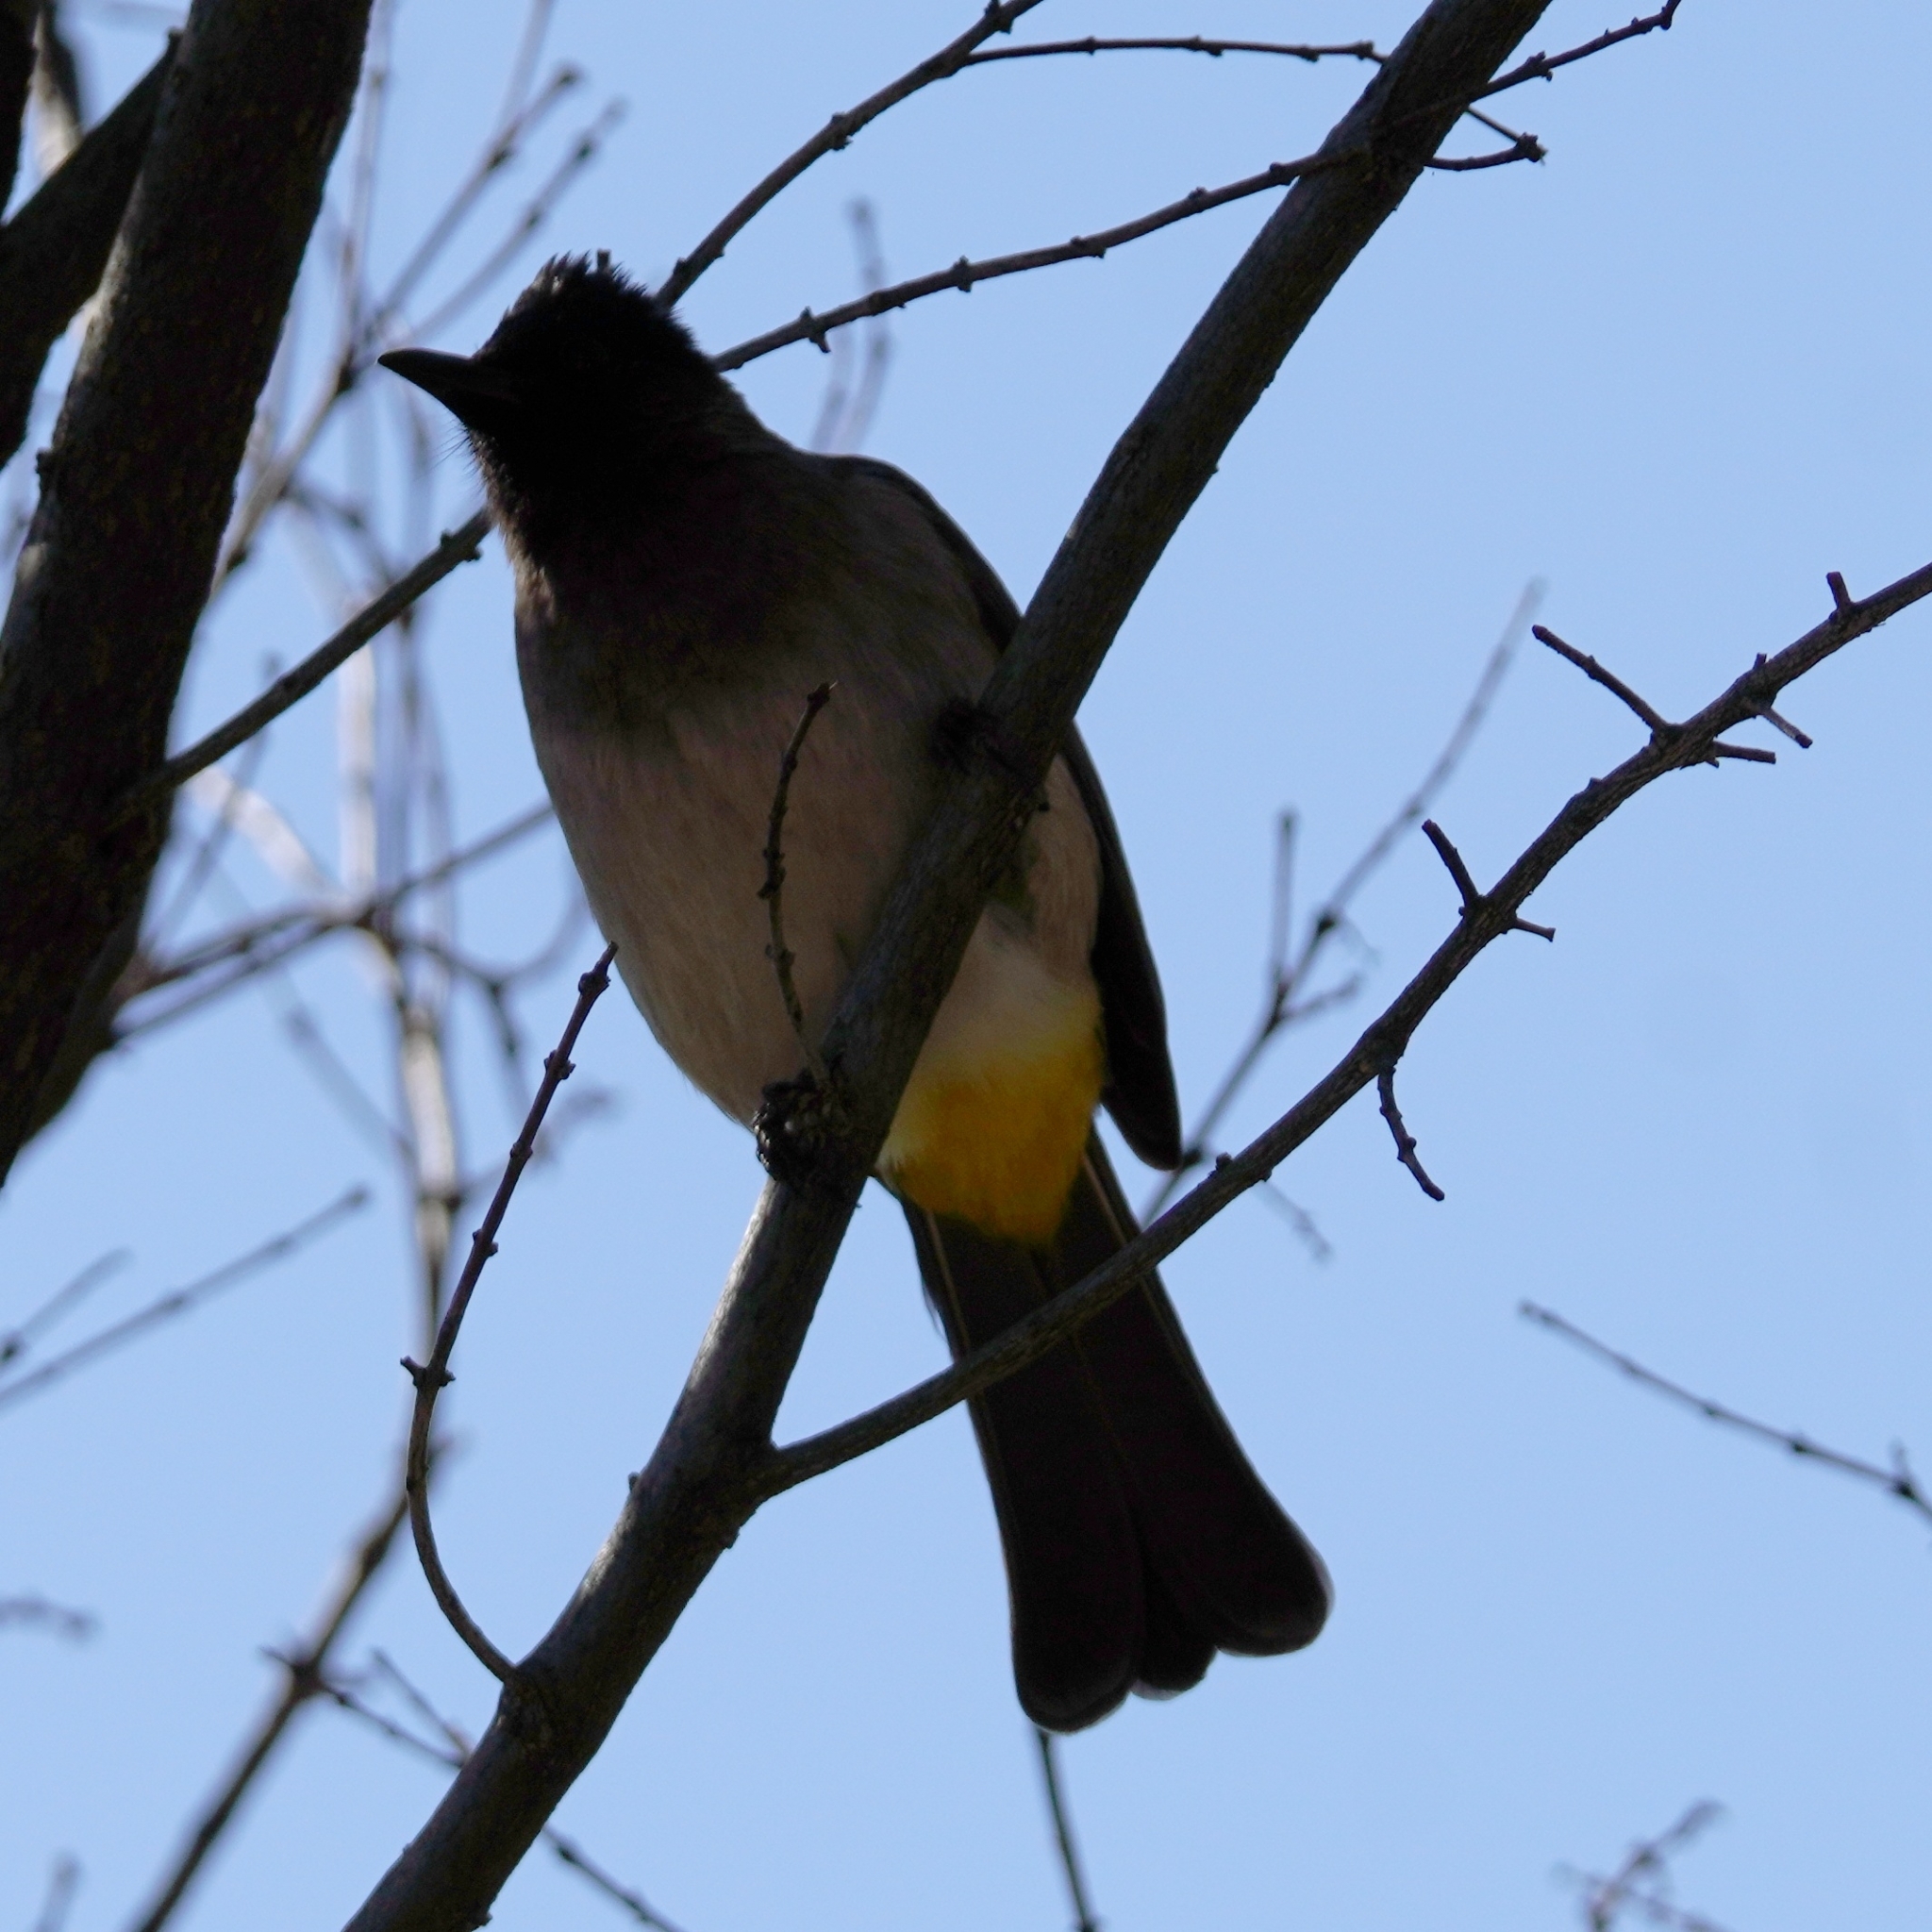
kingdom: Animalia
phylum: Chordata
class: Aves
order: Passeriformes
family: Pycnonotidae
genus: Pycnonotus
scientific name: Pycnonotus barbatus
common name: Common bulbul
